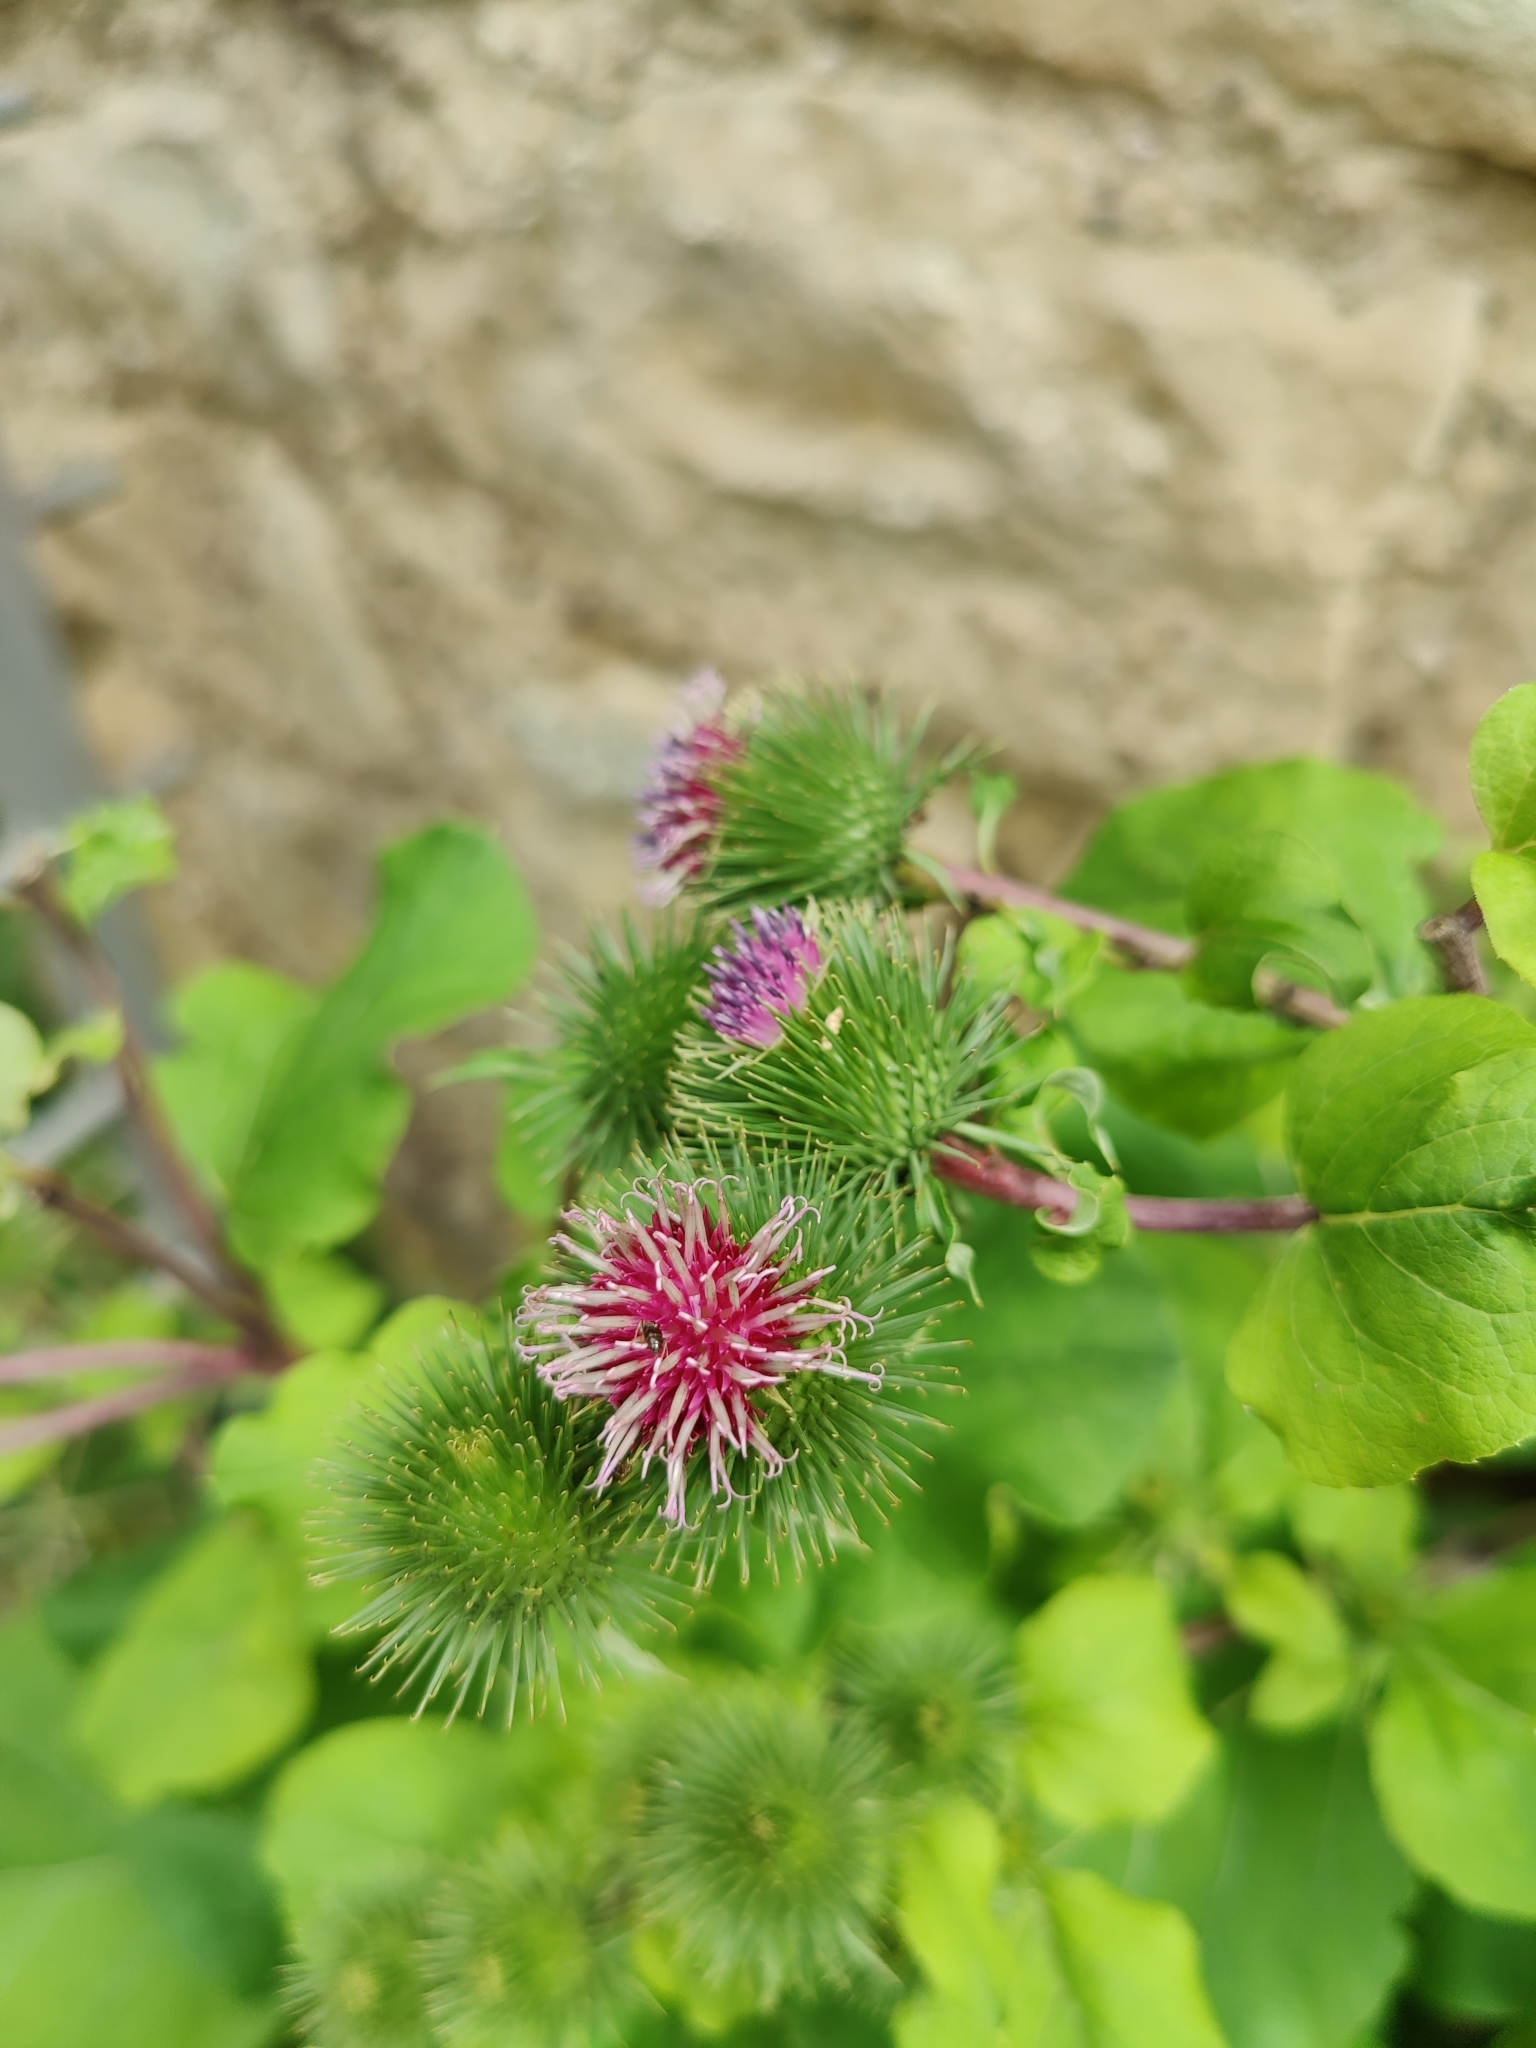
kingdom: Plantae
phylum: Tracheophyta
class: Magnoliopsida
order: Asterales
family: Asteraceae
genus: Arctium
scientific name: Arctium lappa
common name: Greater burdock
